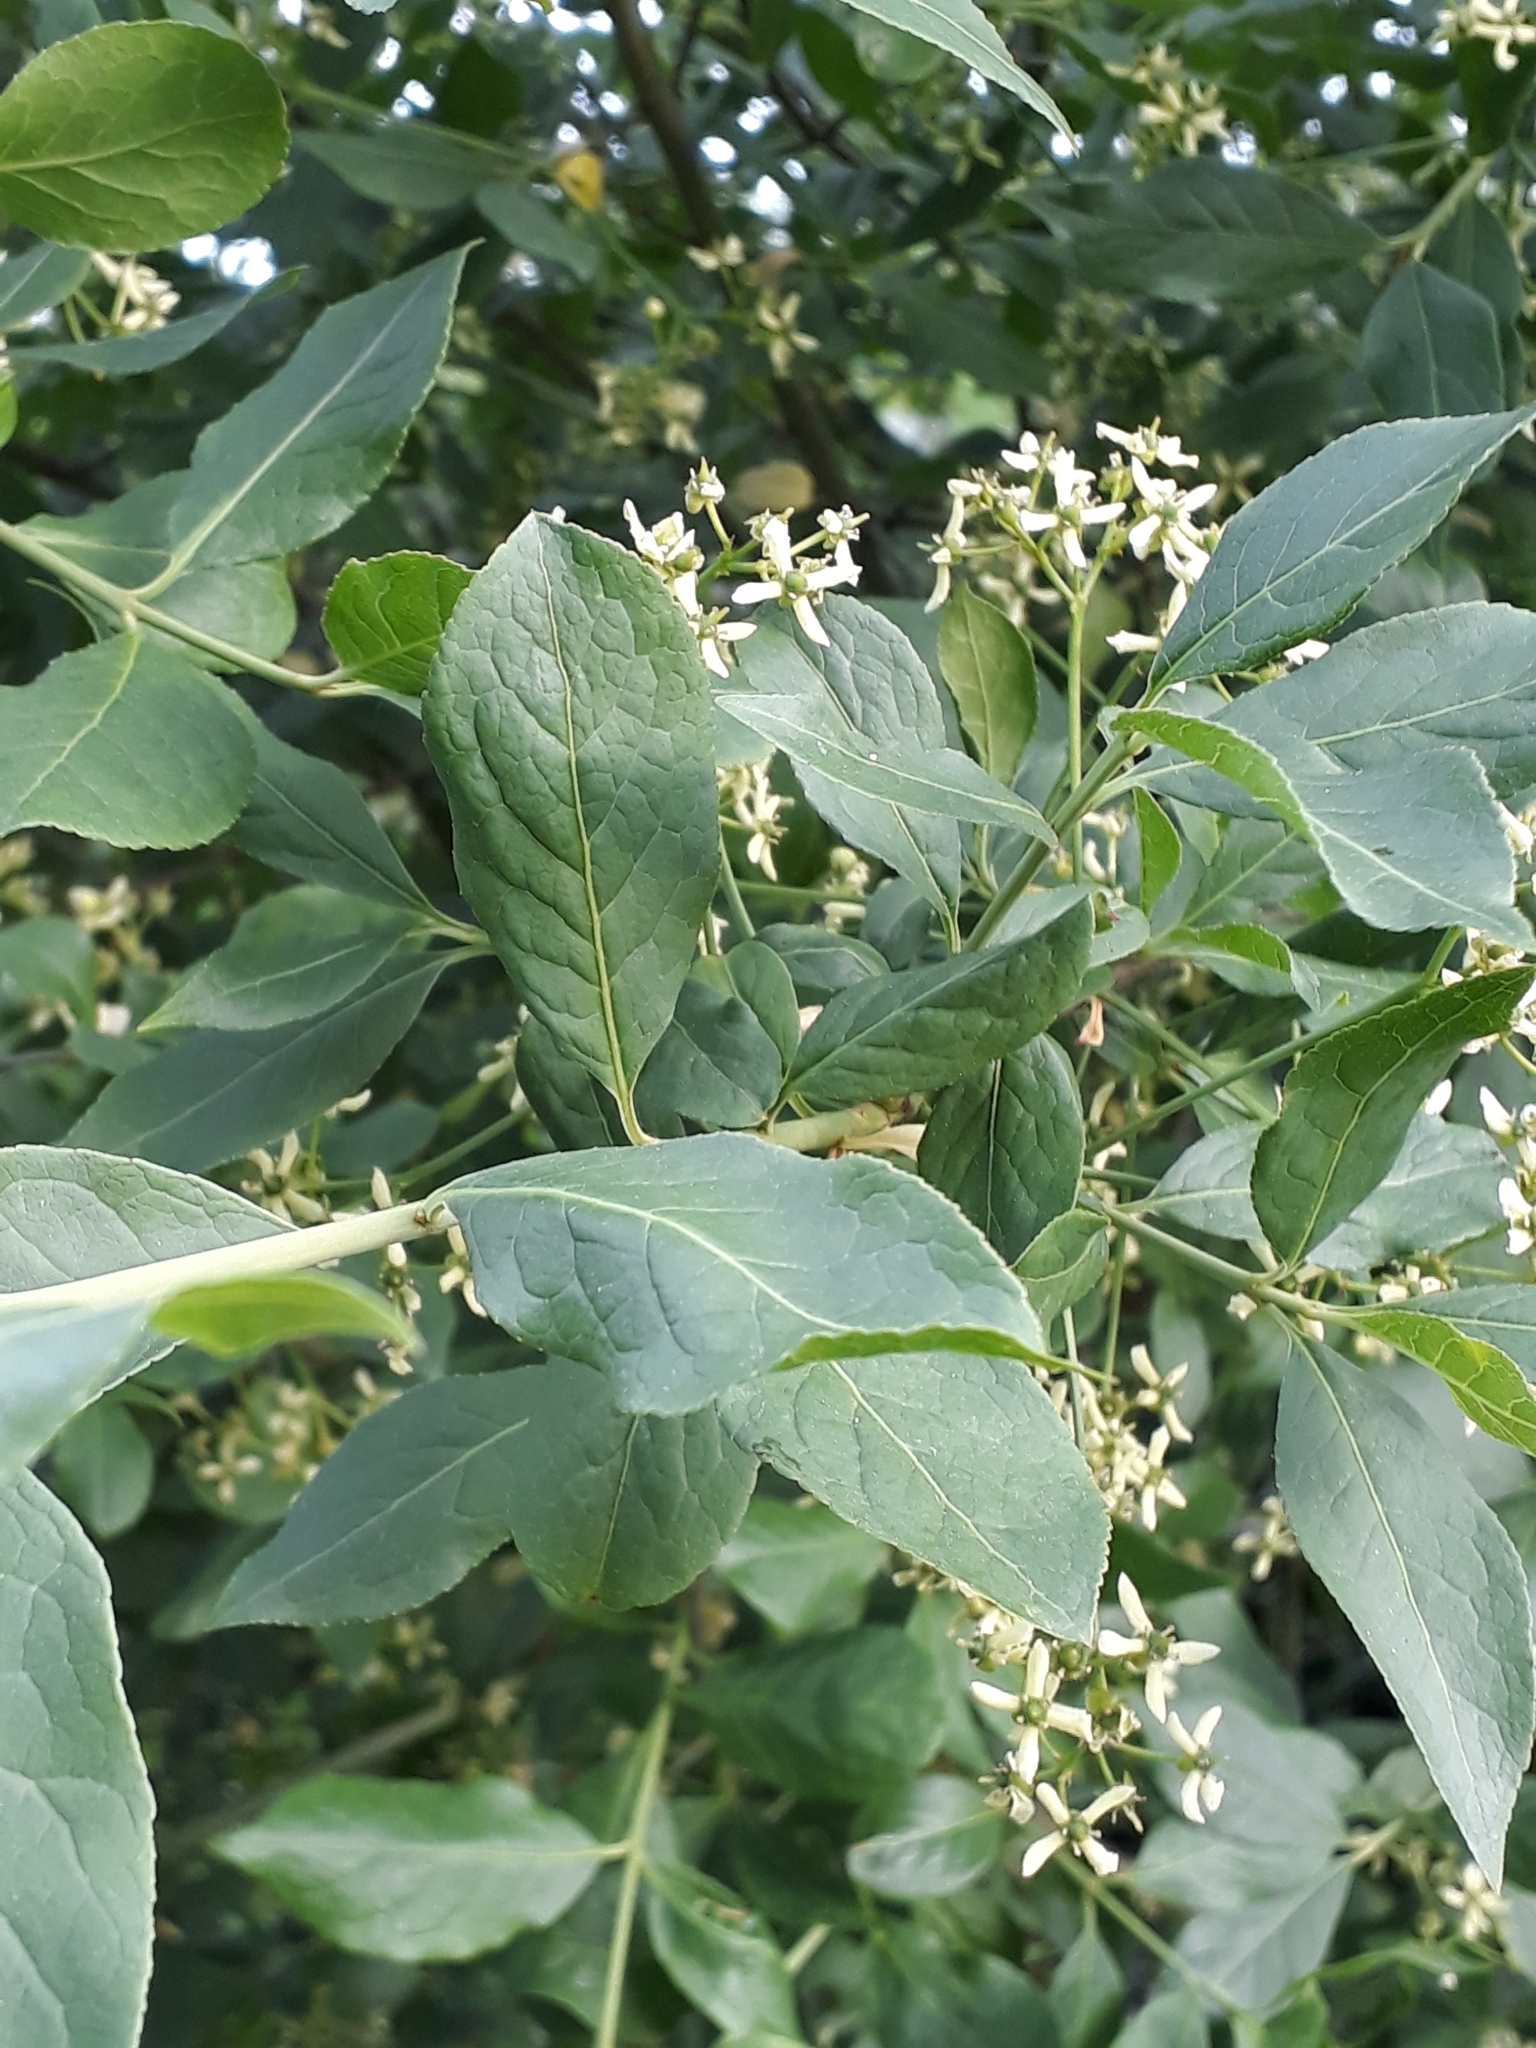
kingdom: Plantae
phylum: Tracheophyta
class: Magnoliopsida
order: Celastrales
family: Celastraceae
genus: Euonymus
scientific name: Euonymus europaeus
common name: Spindle
